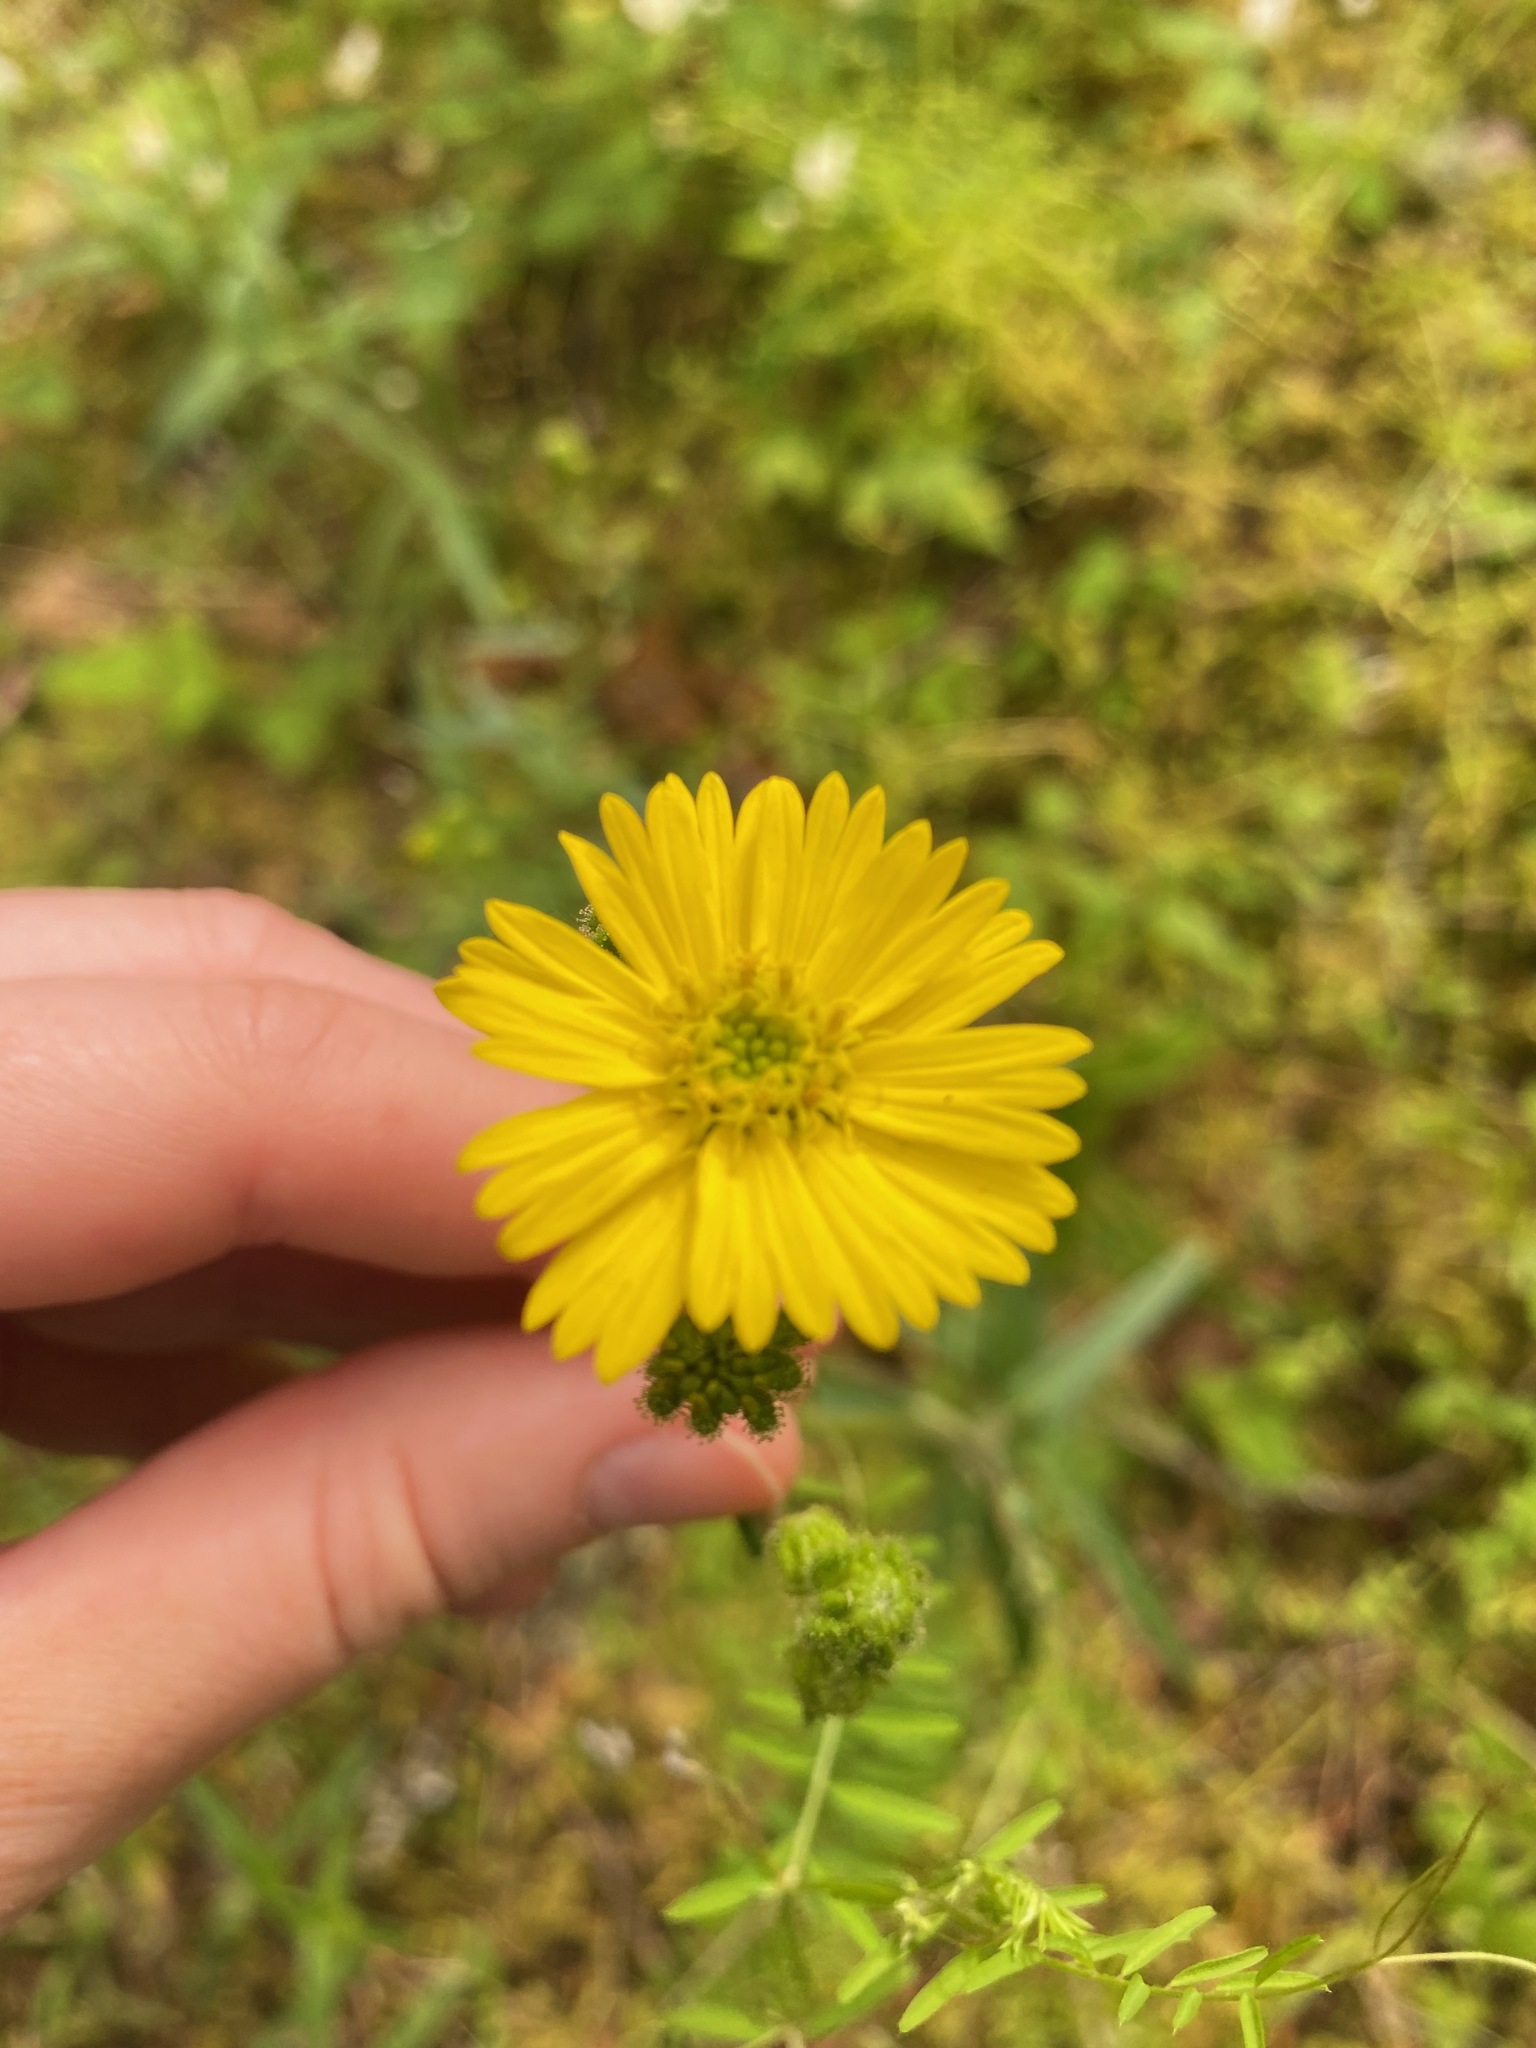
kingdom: Plantae
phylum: Tracheophyta
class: Magnoliopsida
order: Asterales
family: Asteraceae
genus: Anisocarpus
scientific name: Anisocarpus madioides
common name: Woodland madia
